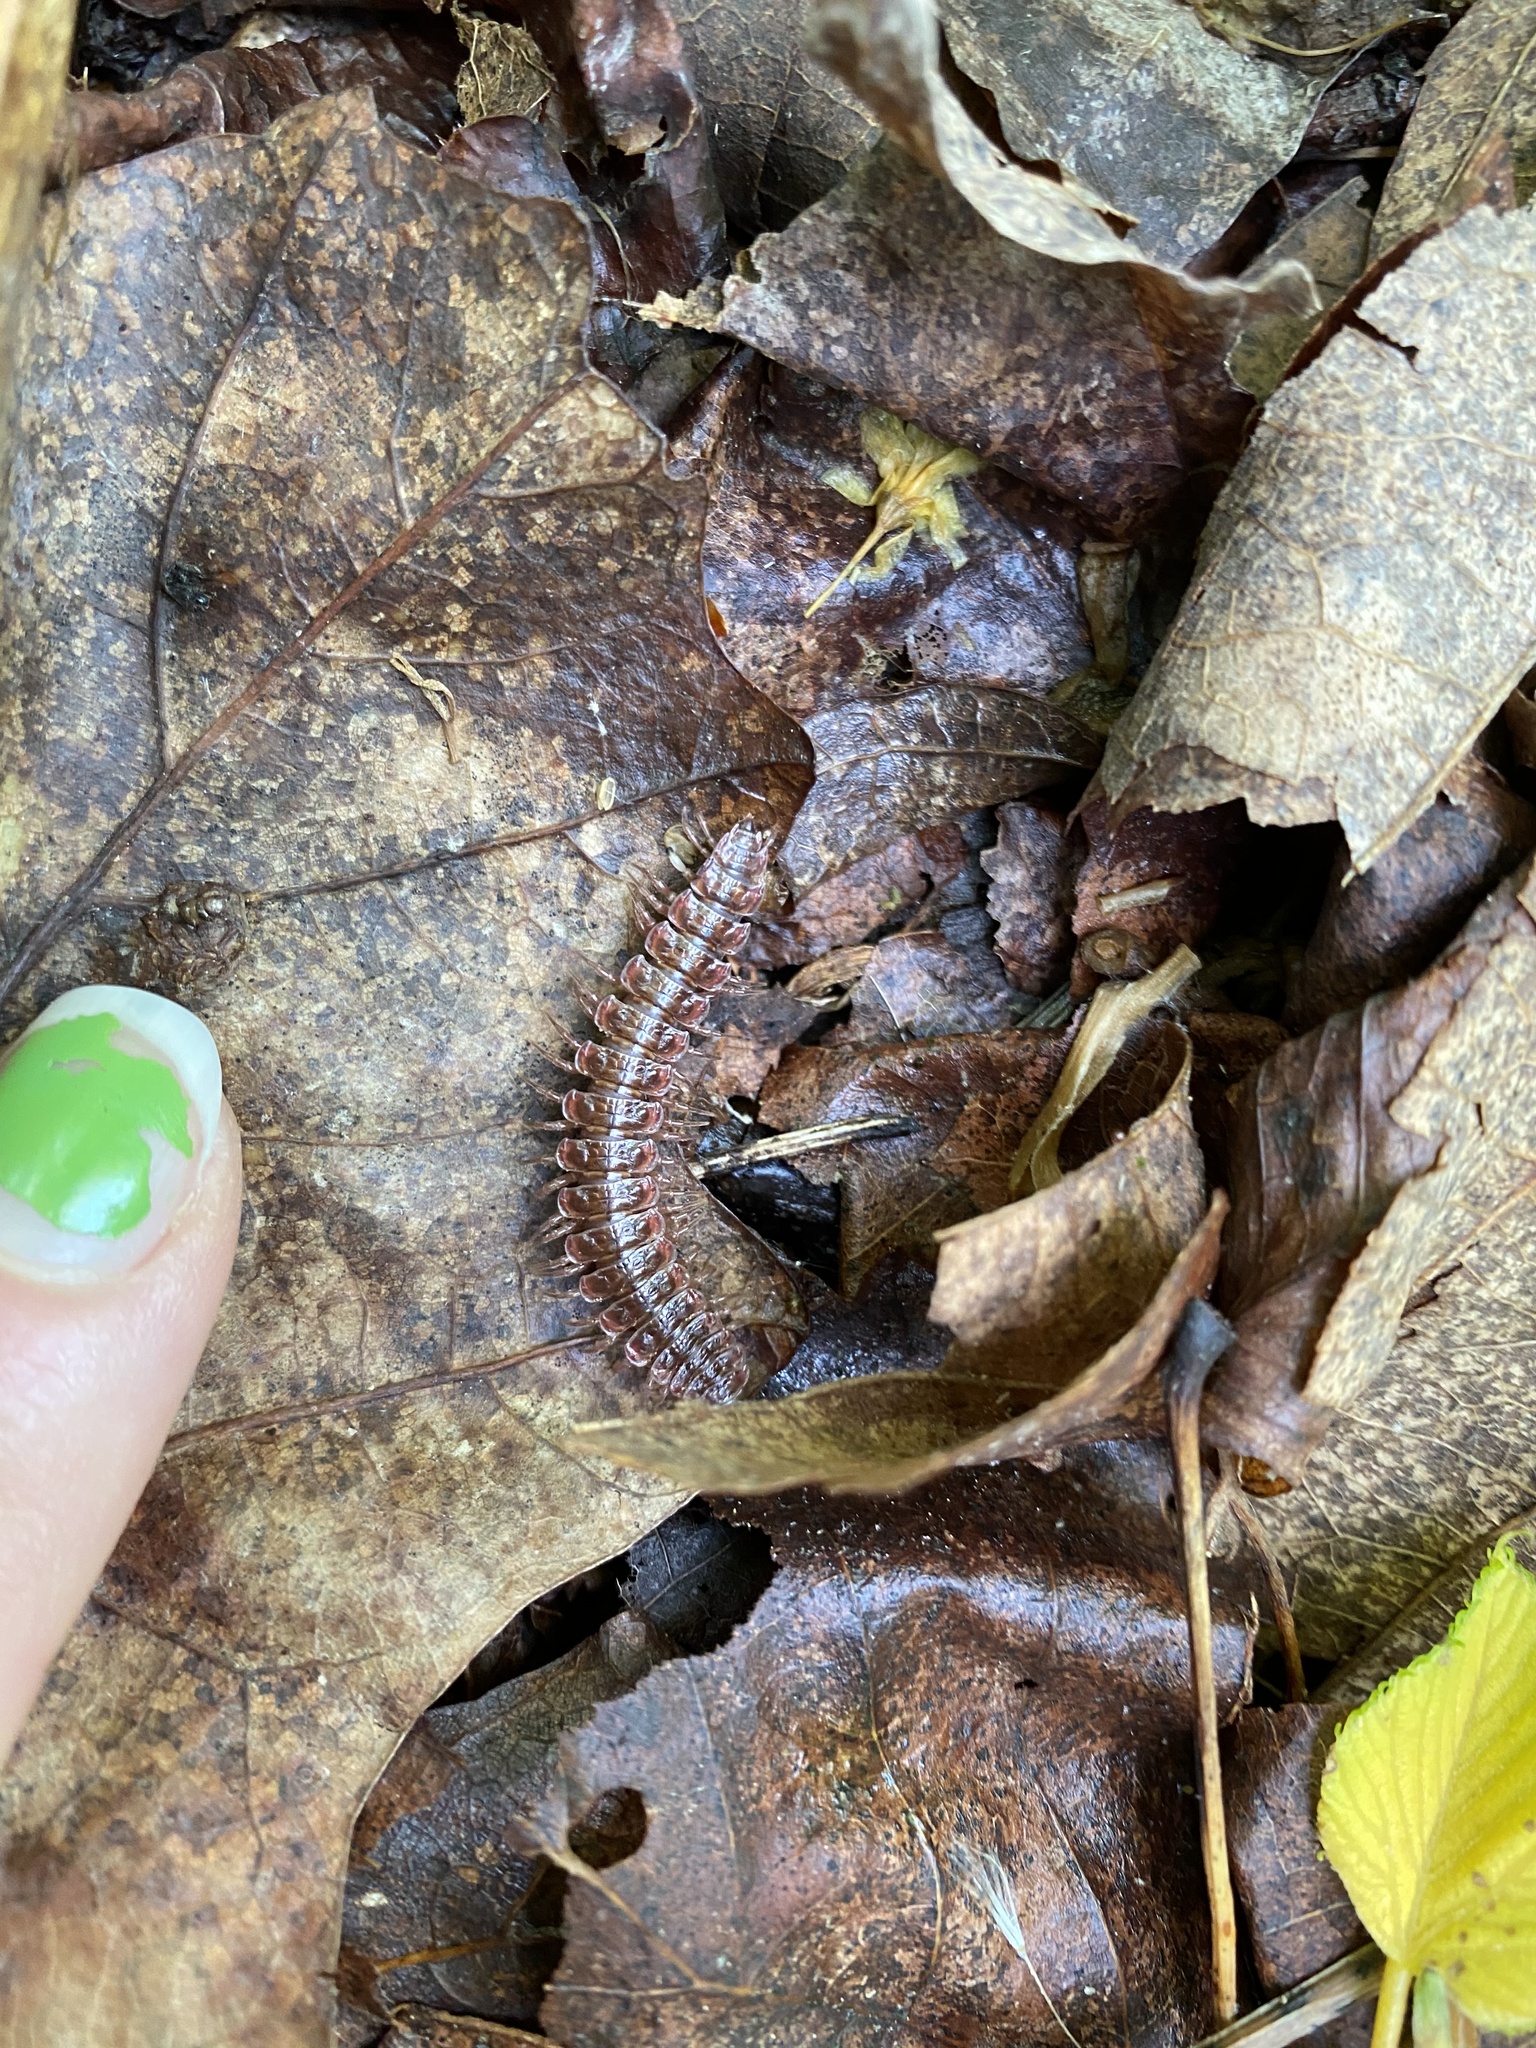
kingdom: Animalia
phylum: Arthropoda
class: Diplopoda
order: Polydesmida
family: Polydesmidae
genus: Pseudopolydesmus
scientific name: Pseudopolydesmus serratus
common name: Common pink flat-back millipede
